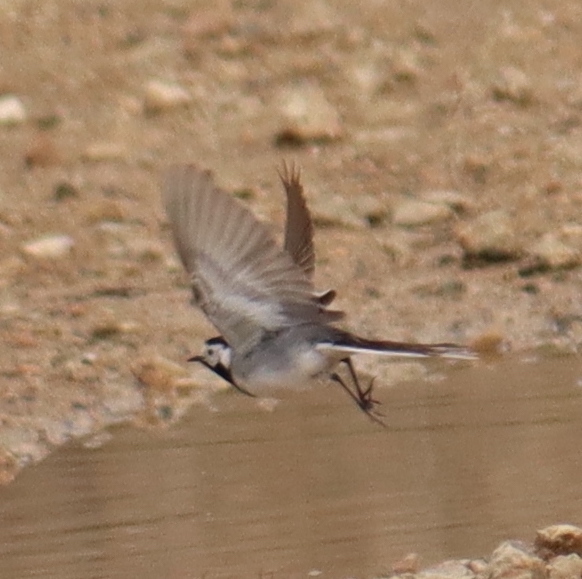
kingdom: Animalia
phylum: Chordata
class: Aves
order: Passeriformes
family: Motacillidae
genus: Motacilla
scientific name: Motacilla alba
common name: White wagtail
